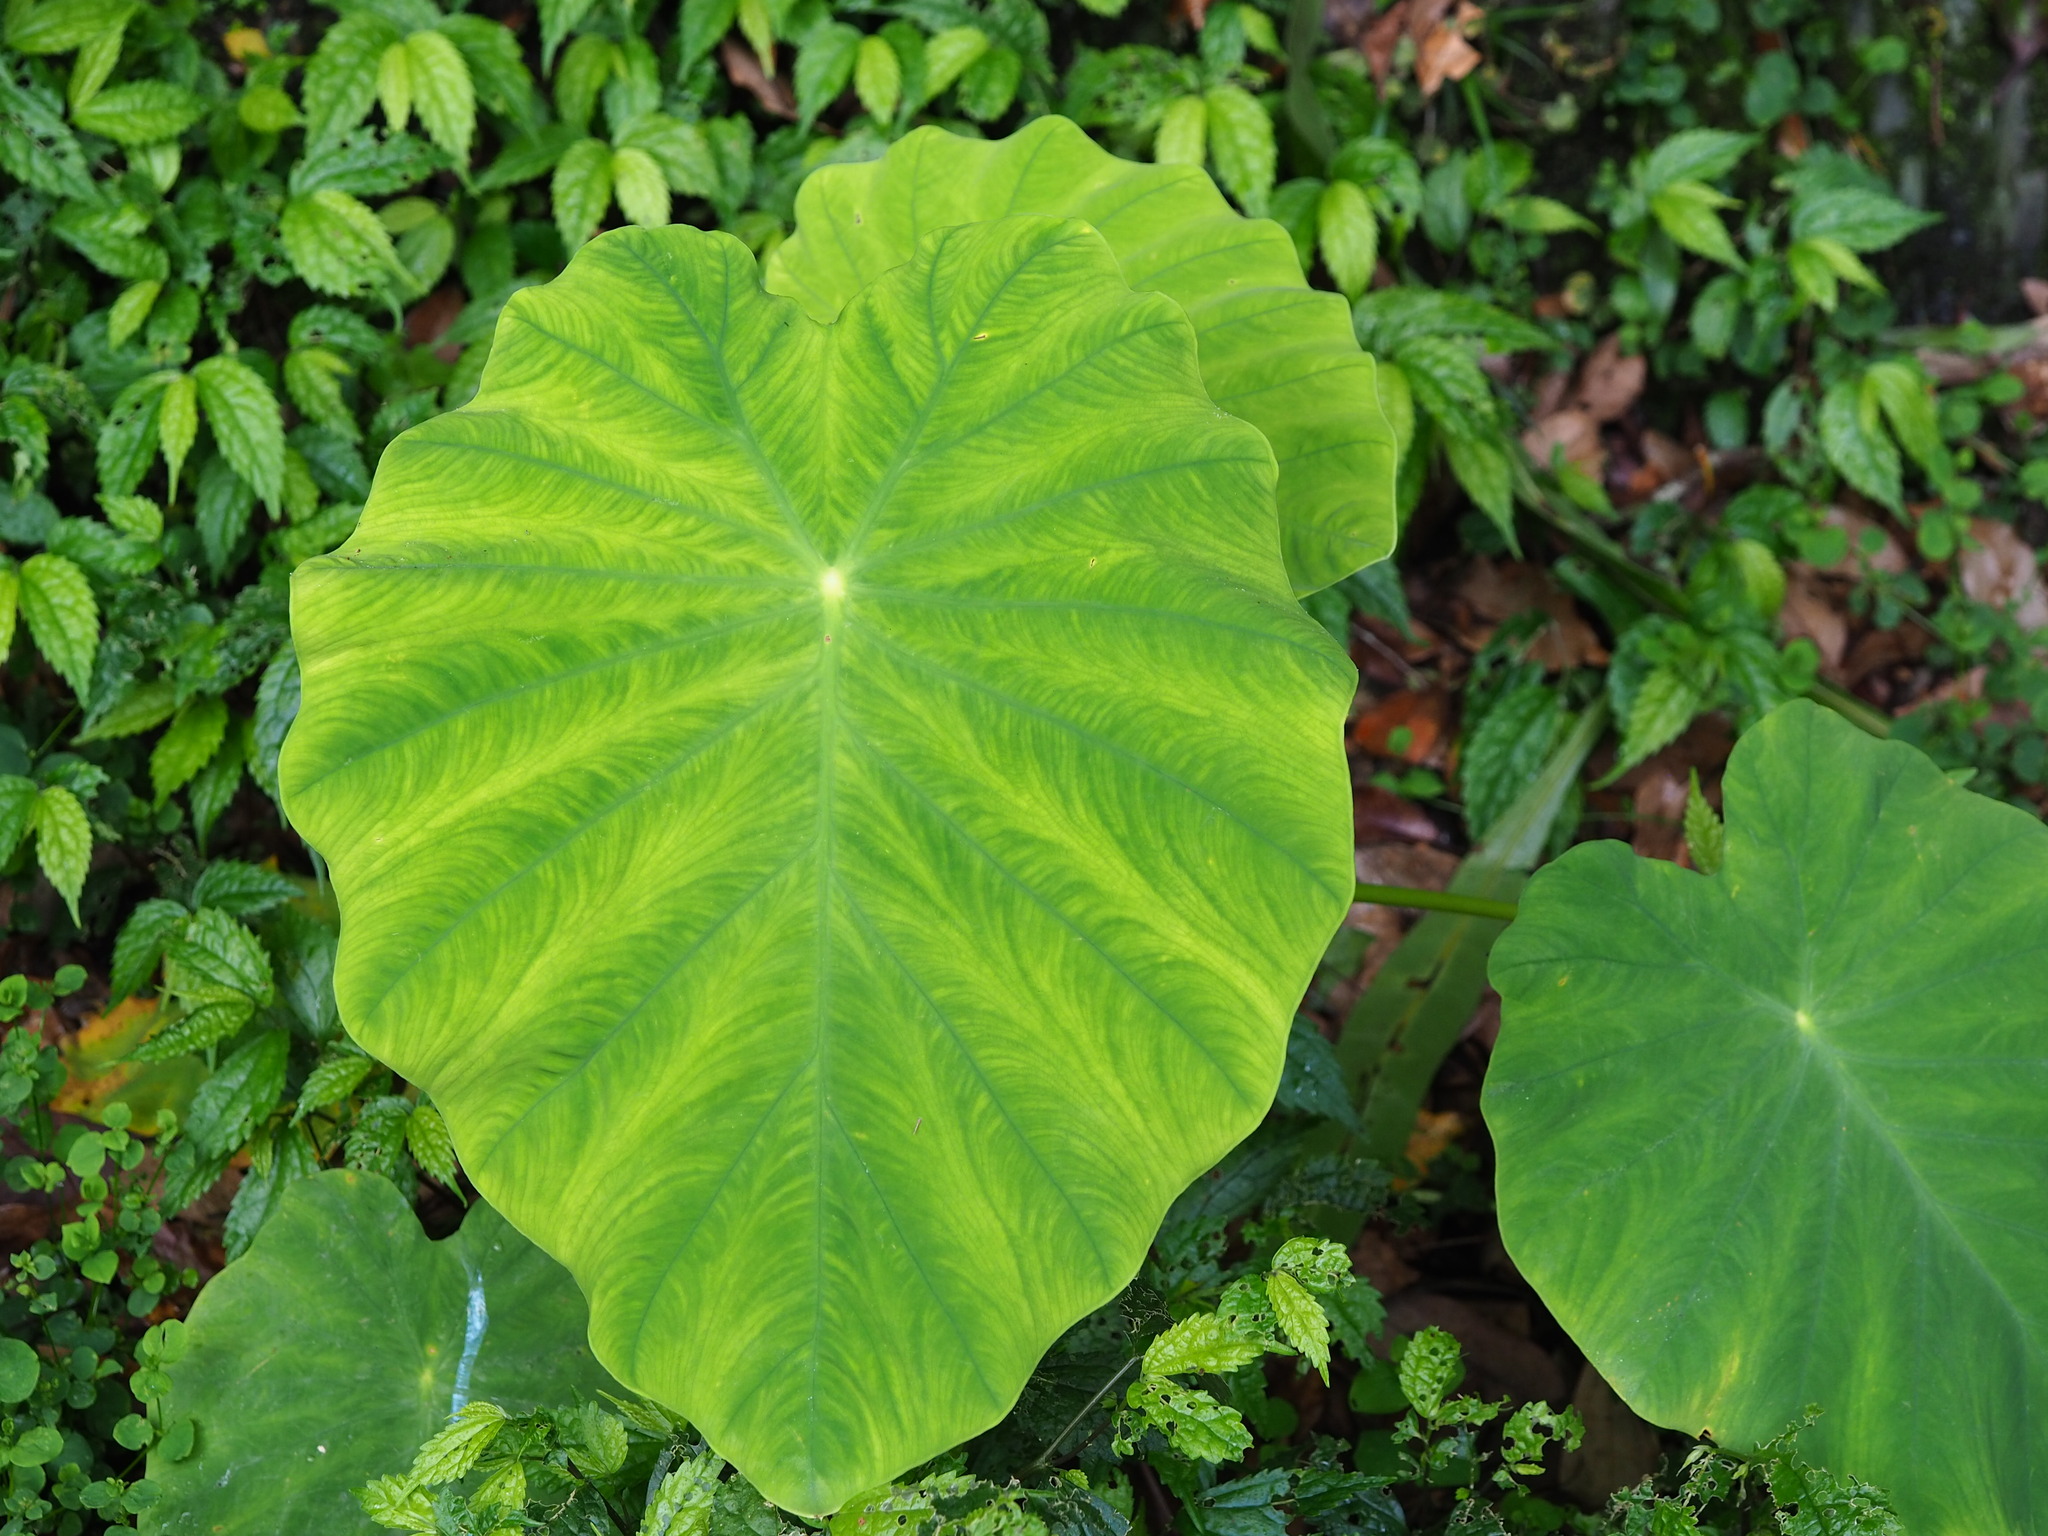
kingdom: Plantae
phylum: Tracheophyta
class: Liliopsida
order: Alismatales
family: Araceae
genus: Colocasia
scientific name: Colocasia esculenta
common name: Taro
